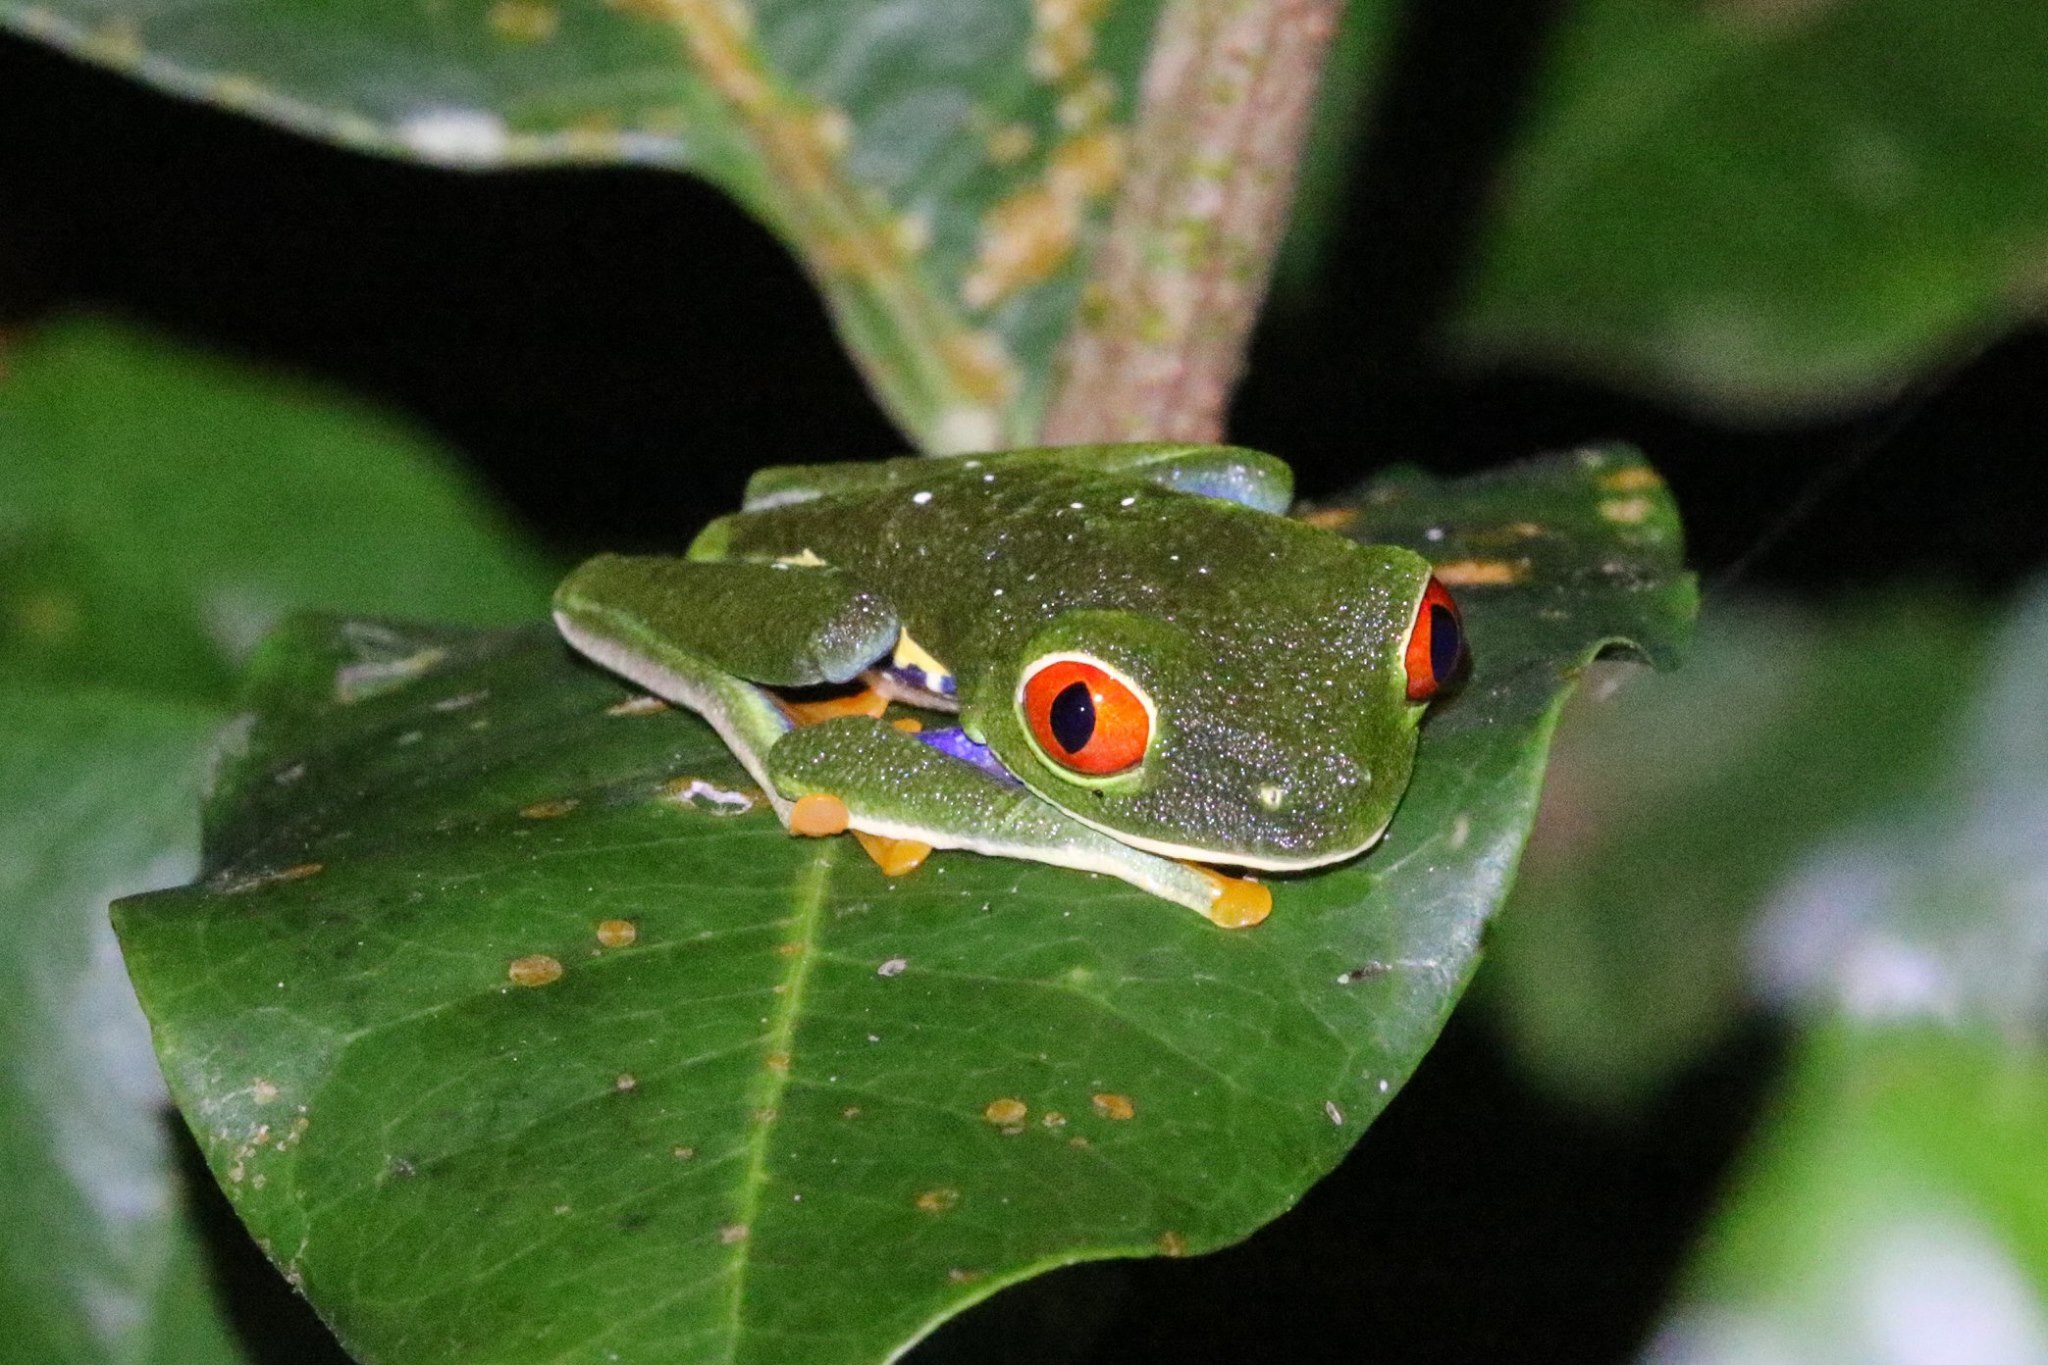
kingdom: Animalia
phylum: Chordata
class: Amphibia
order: Anura
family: Phyllomedusidae
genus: Agalychnis
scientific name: Agalychnis callidryas
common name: Red-eyed treefrog
